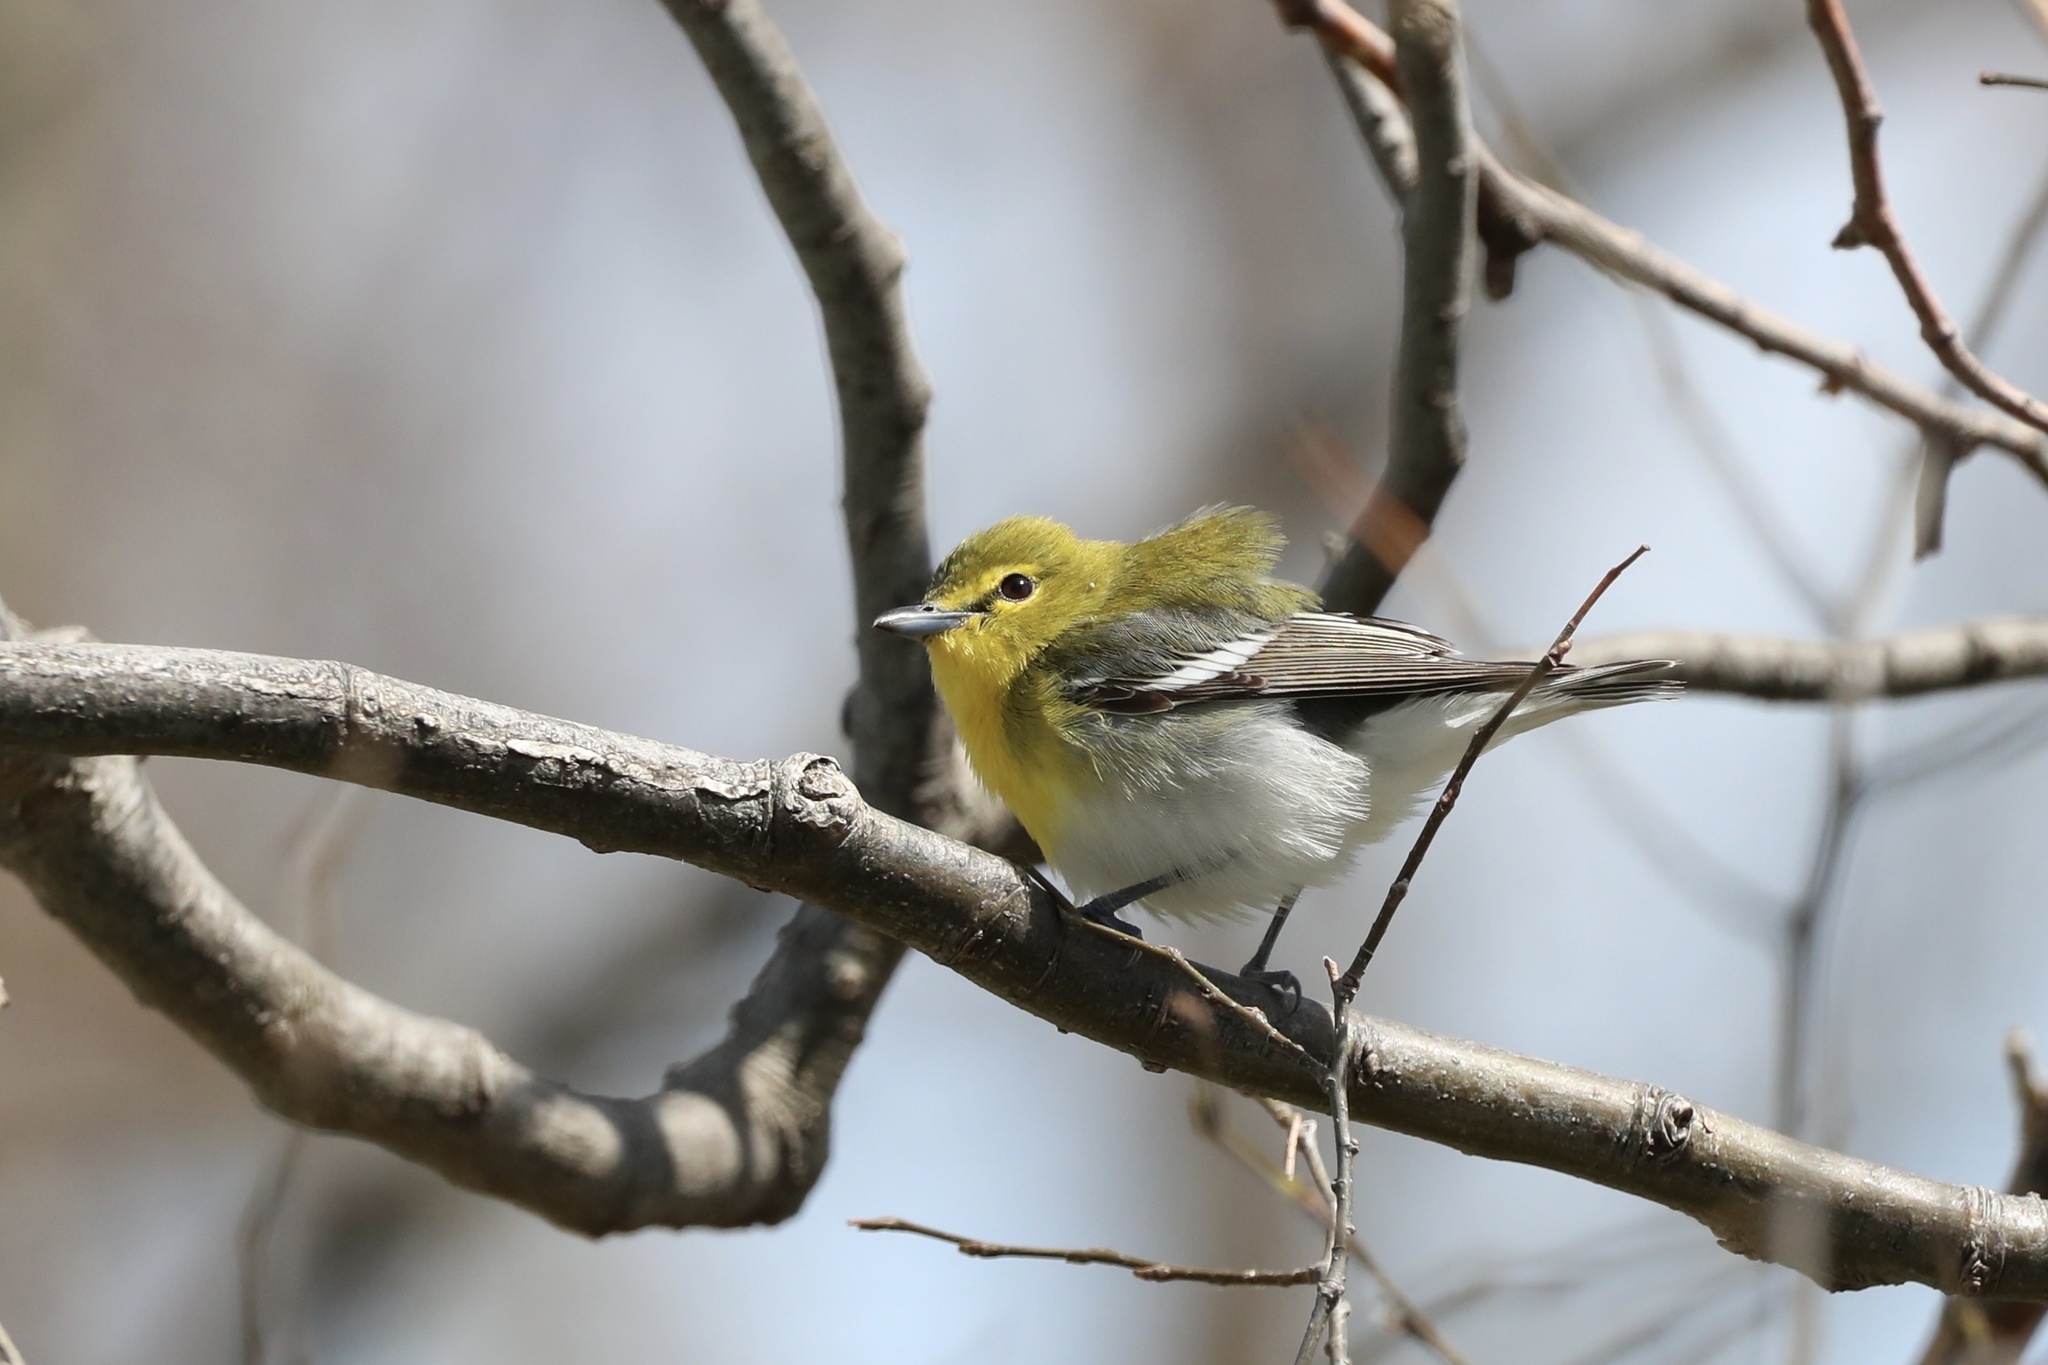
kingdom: Animalia
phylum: Chordata
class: Aves
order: Passeriformes
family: Vireonidae
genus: Vireo
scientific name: Vireo flavifrons
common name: Yellow-throated vireo
